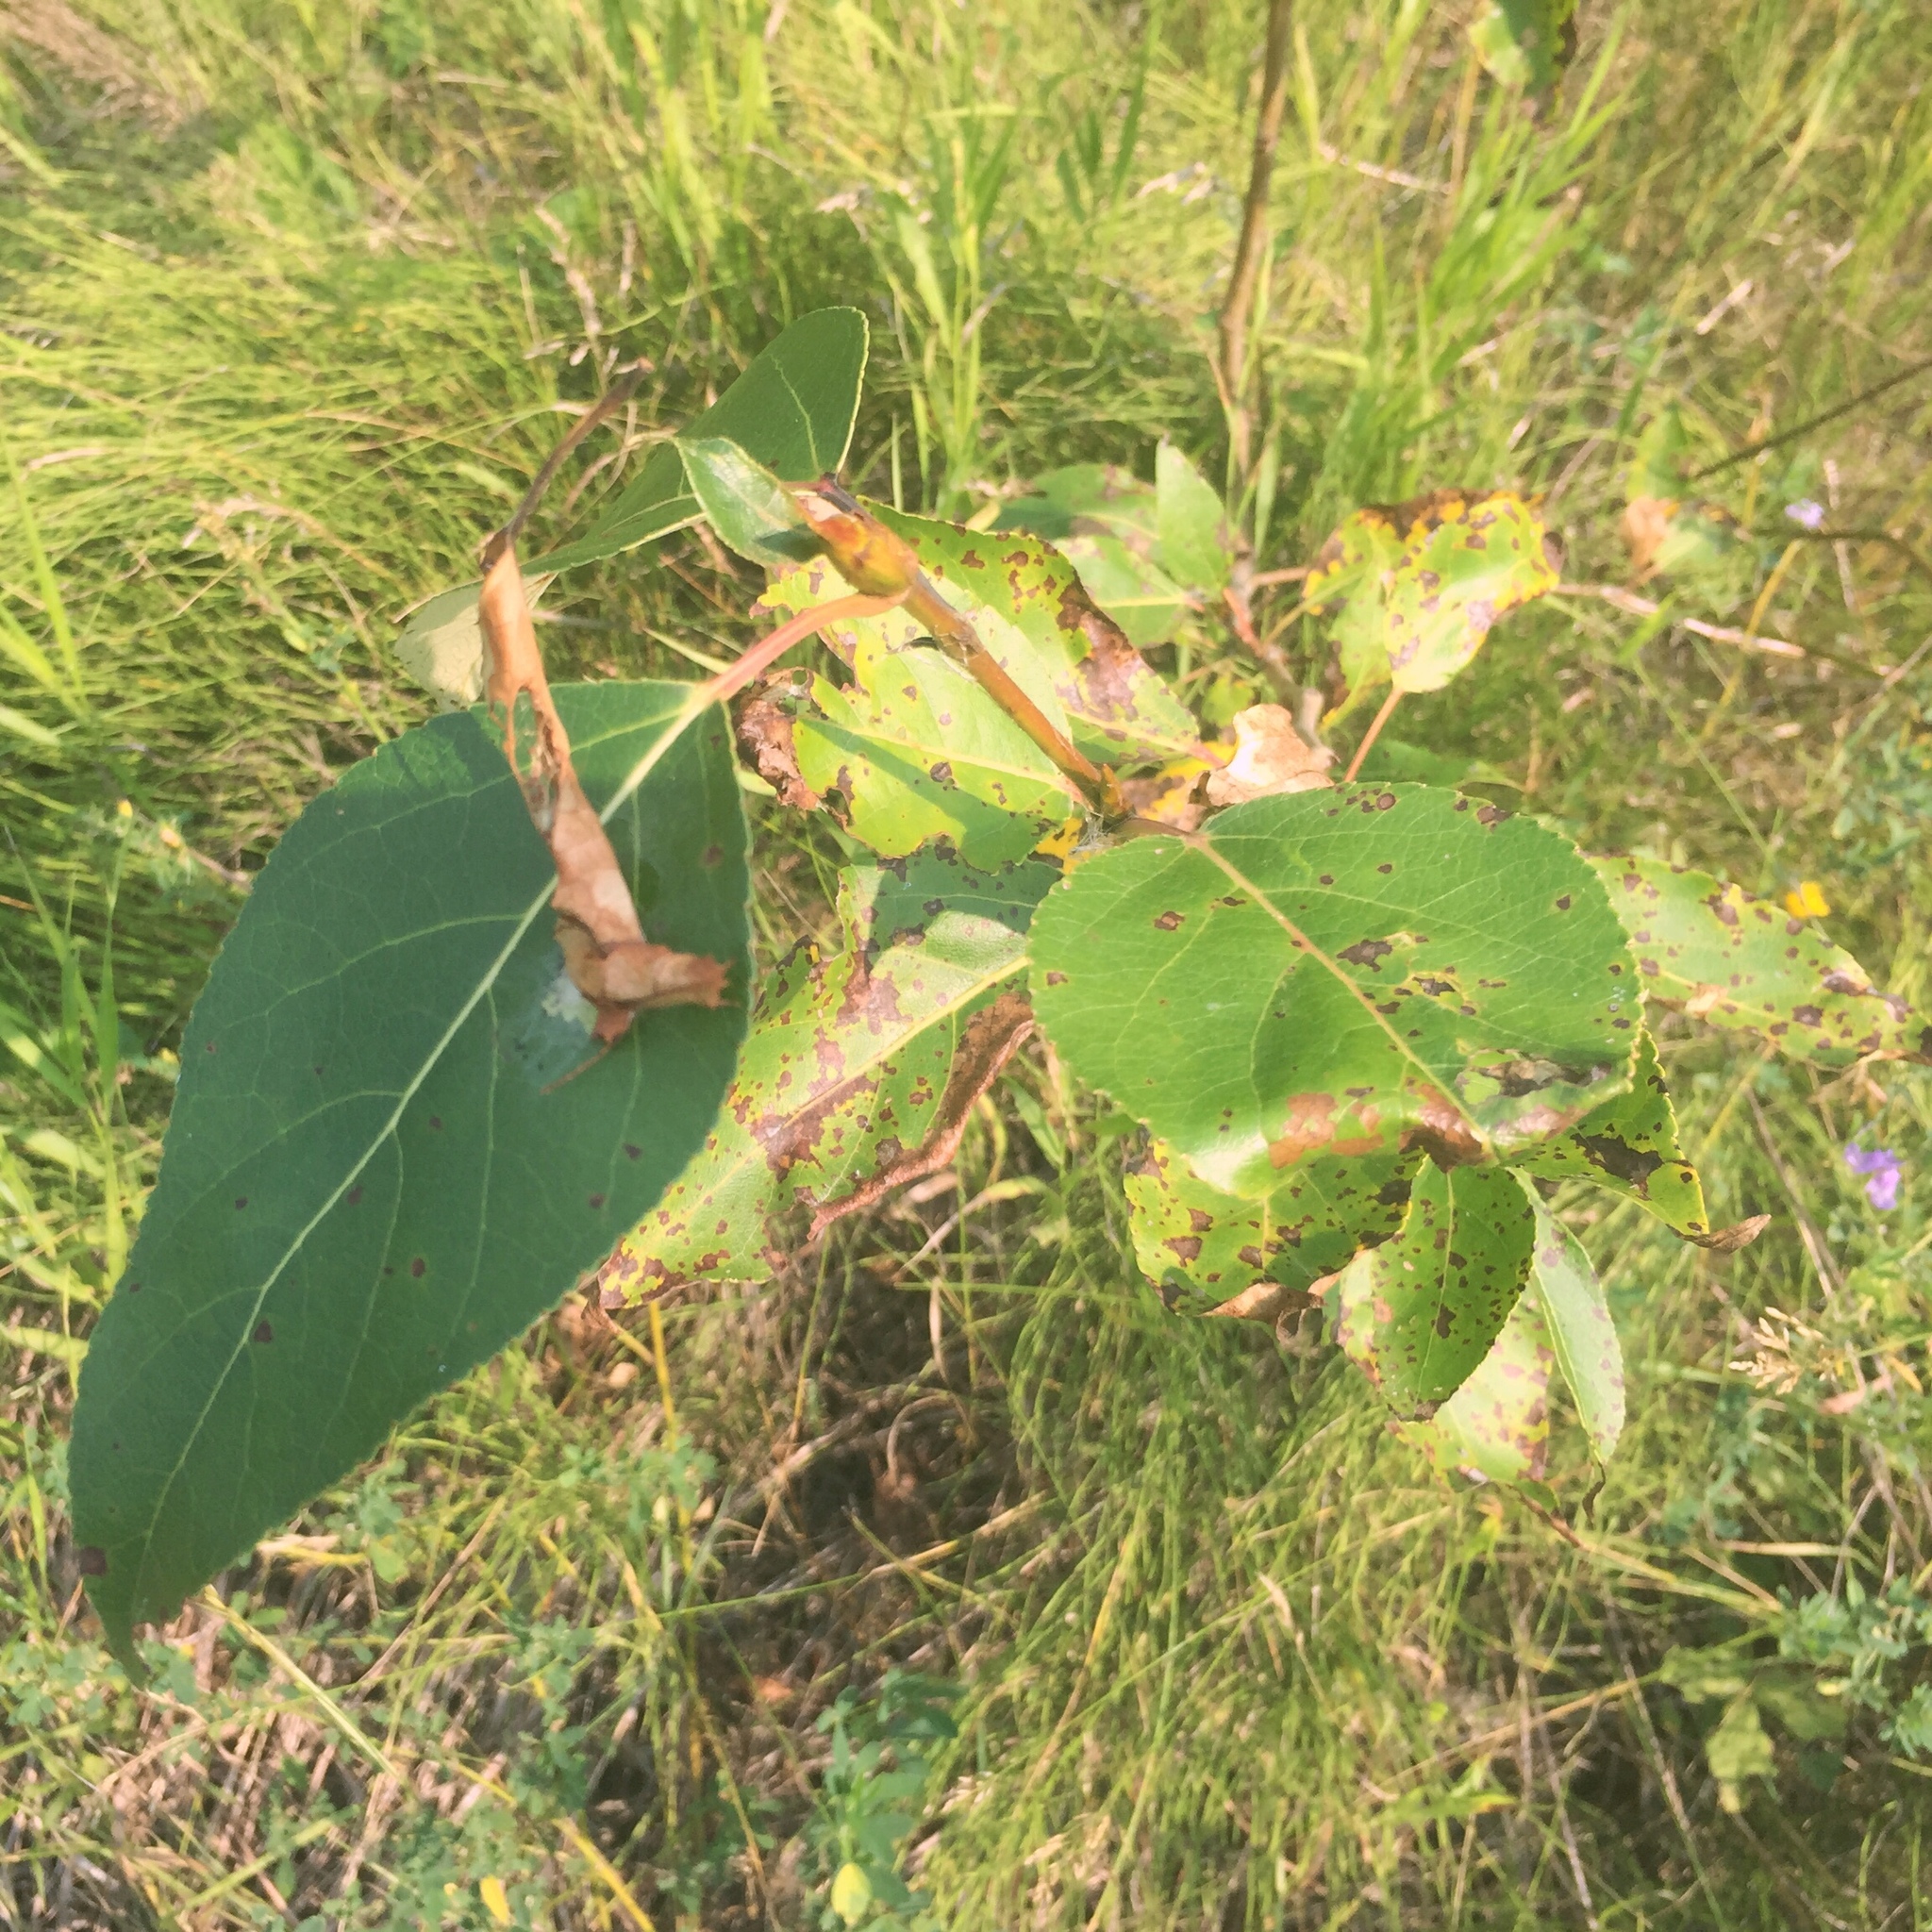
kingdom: Plantae
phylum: Tracheophyta
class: Magnoliopsida
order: Malpighiales
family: Salicaceae
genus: Populus
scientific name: Populus balsamifera
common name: Balsam poplar
